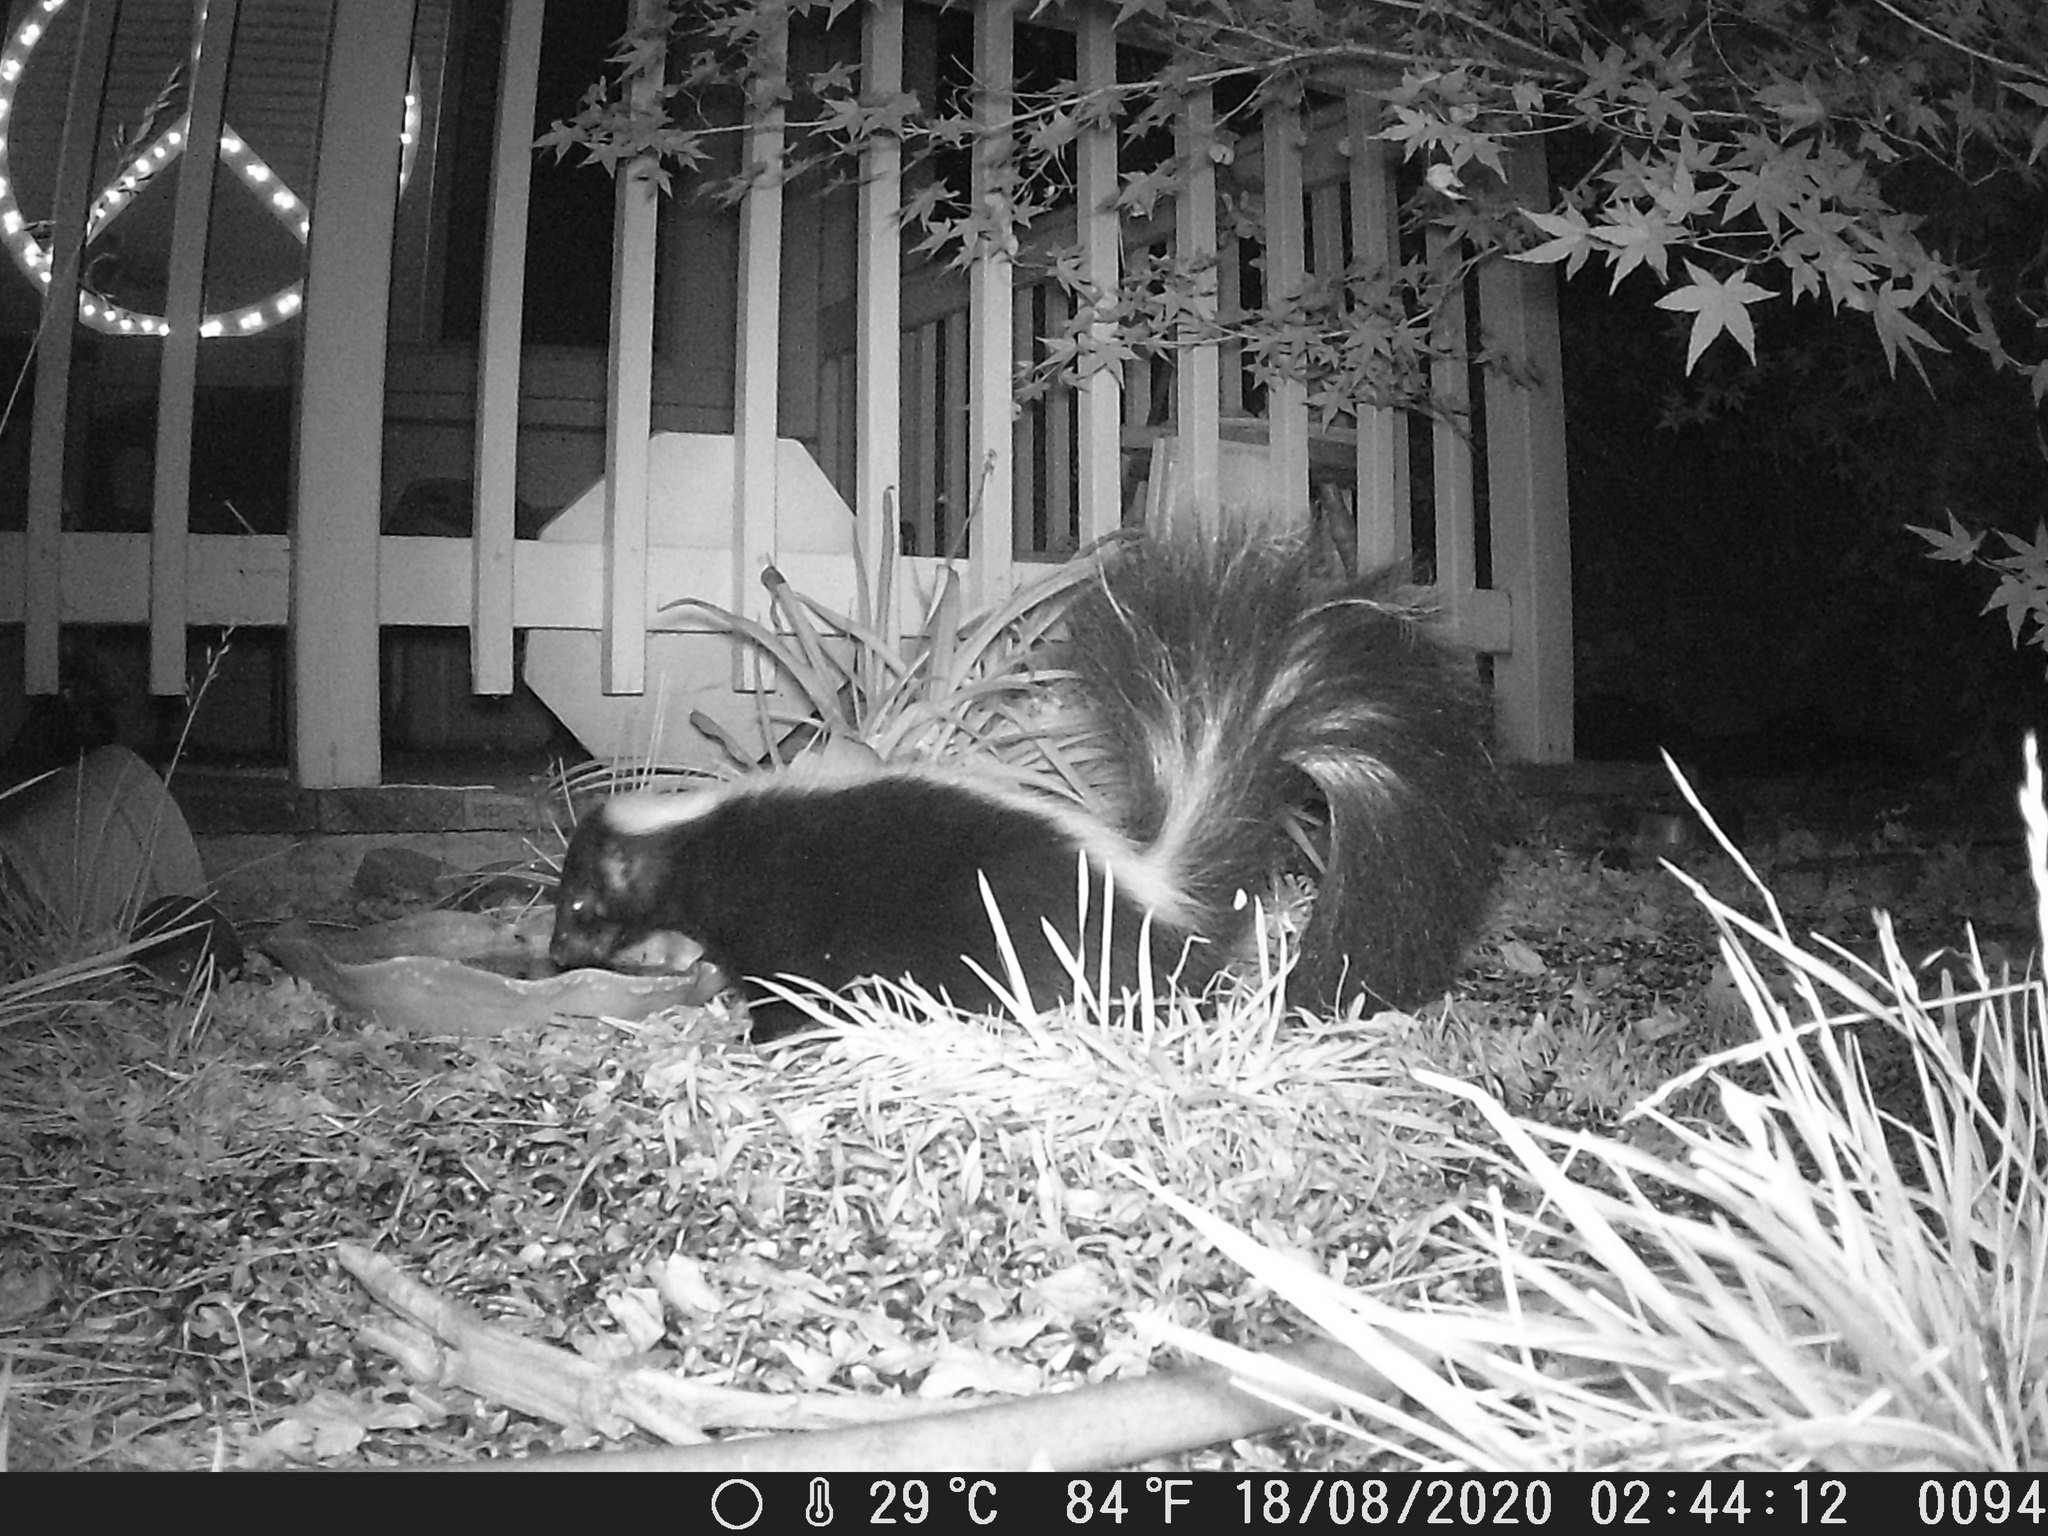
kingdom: Animalia
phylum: Chordata
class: Mammalia
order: Carnivora
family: Mephitidae
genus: Mephitis
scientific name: Mephitis mephitis
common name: Striped skunk
